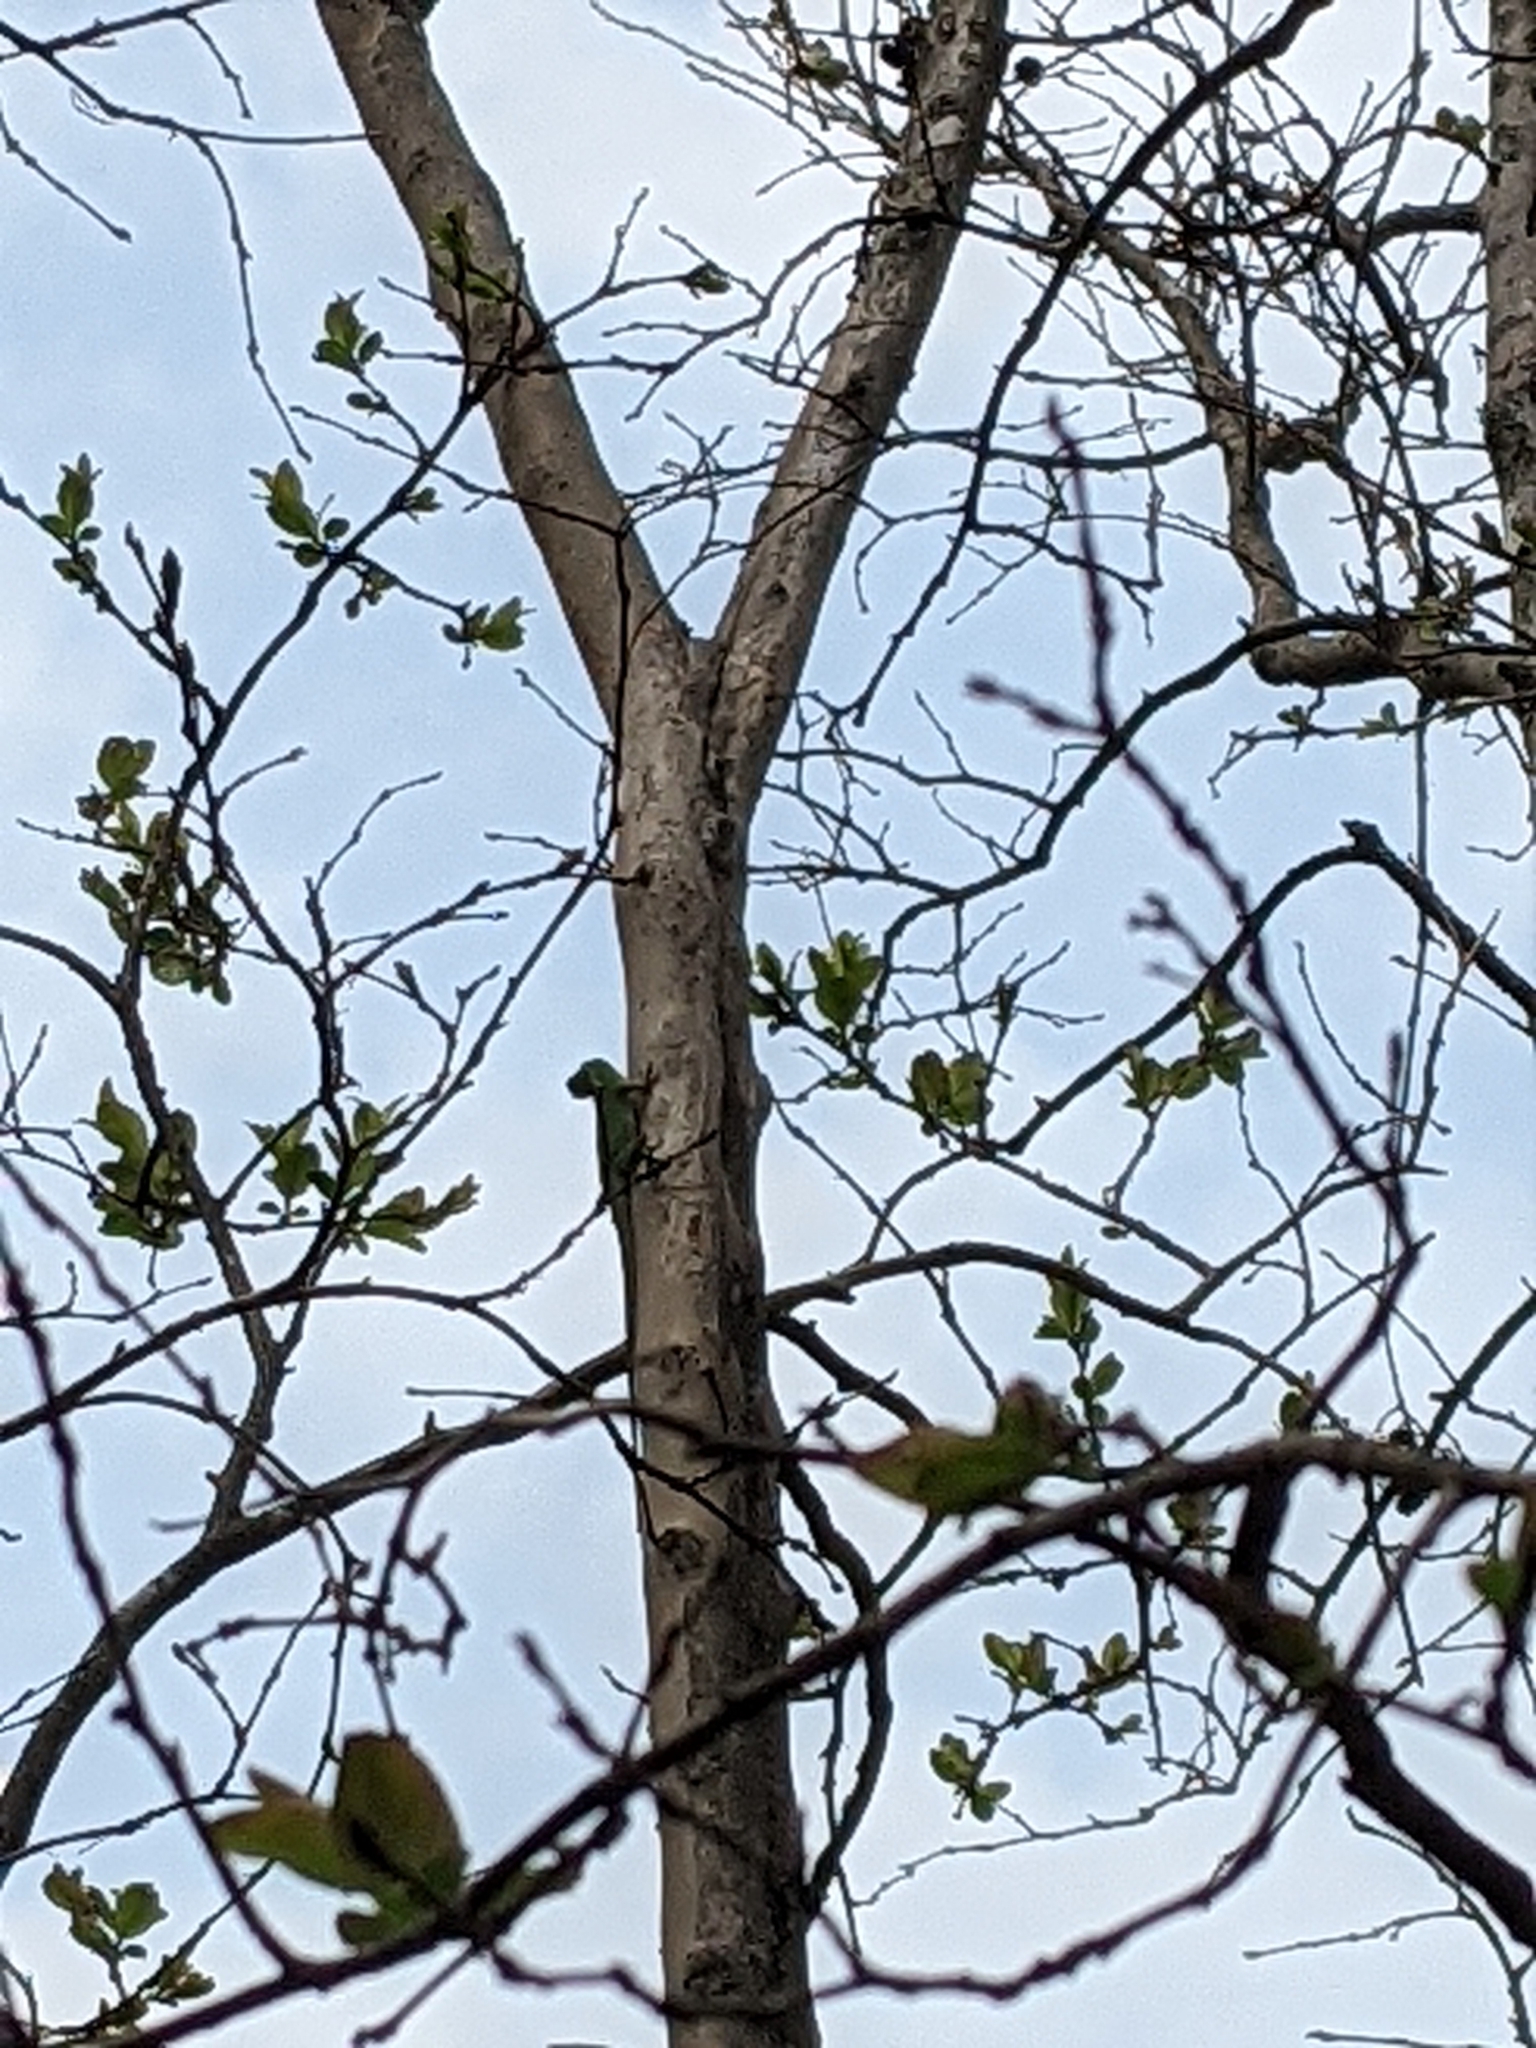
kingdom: Animalia
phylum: Chordata
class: Squamata
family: Dactyloidae
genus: Anolis
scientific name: Anolis carolinensis
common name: Green anole
